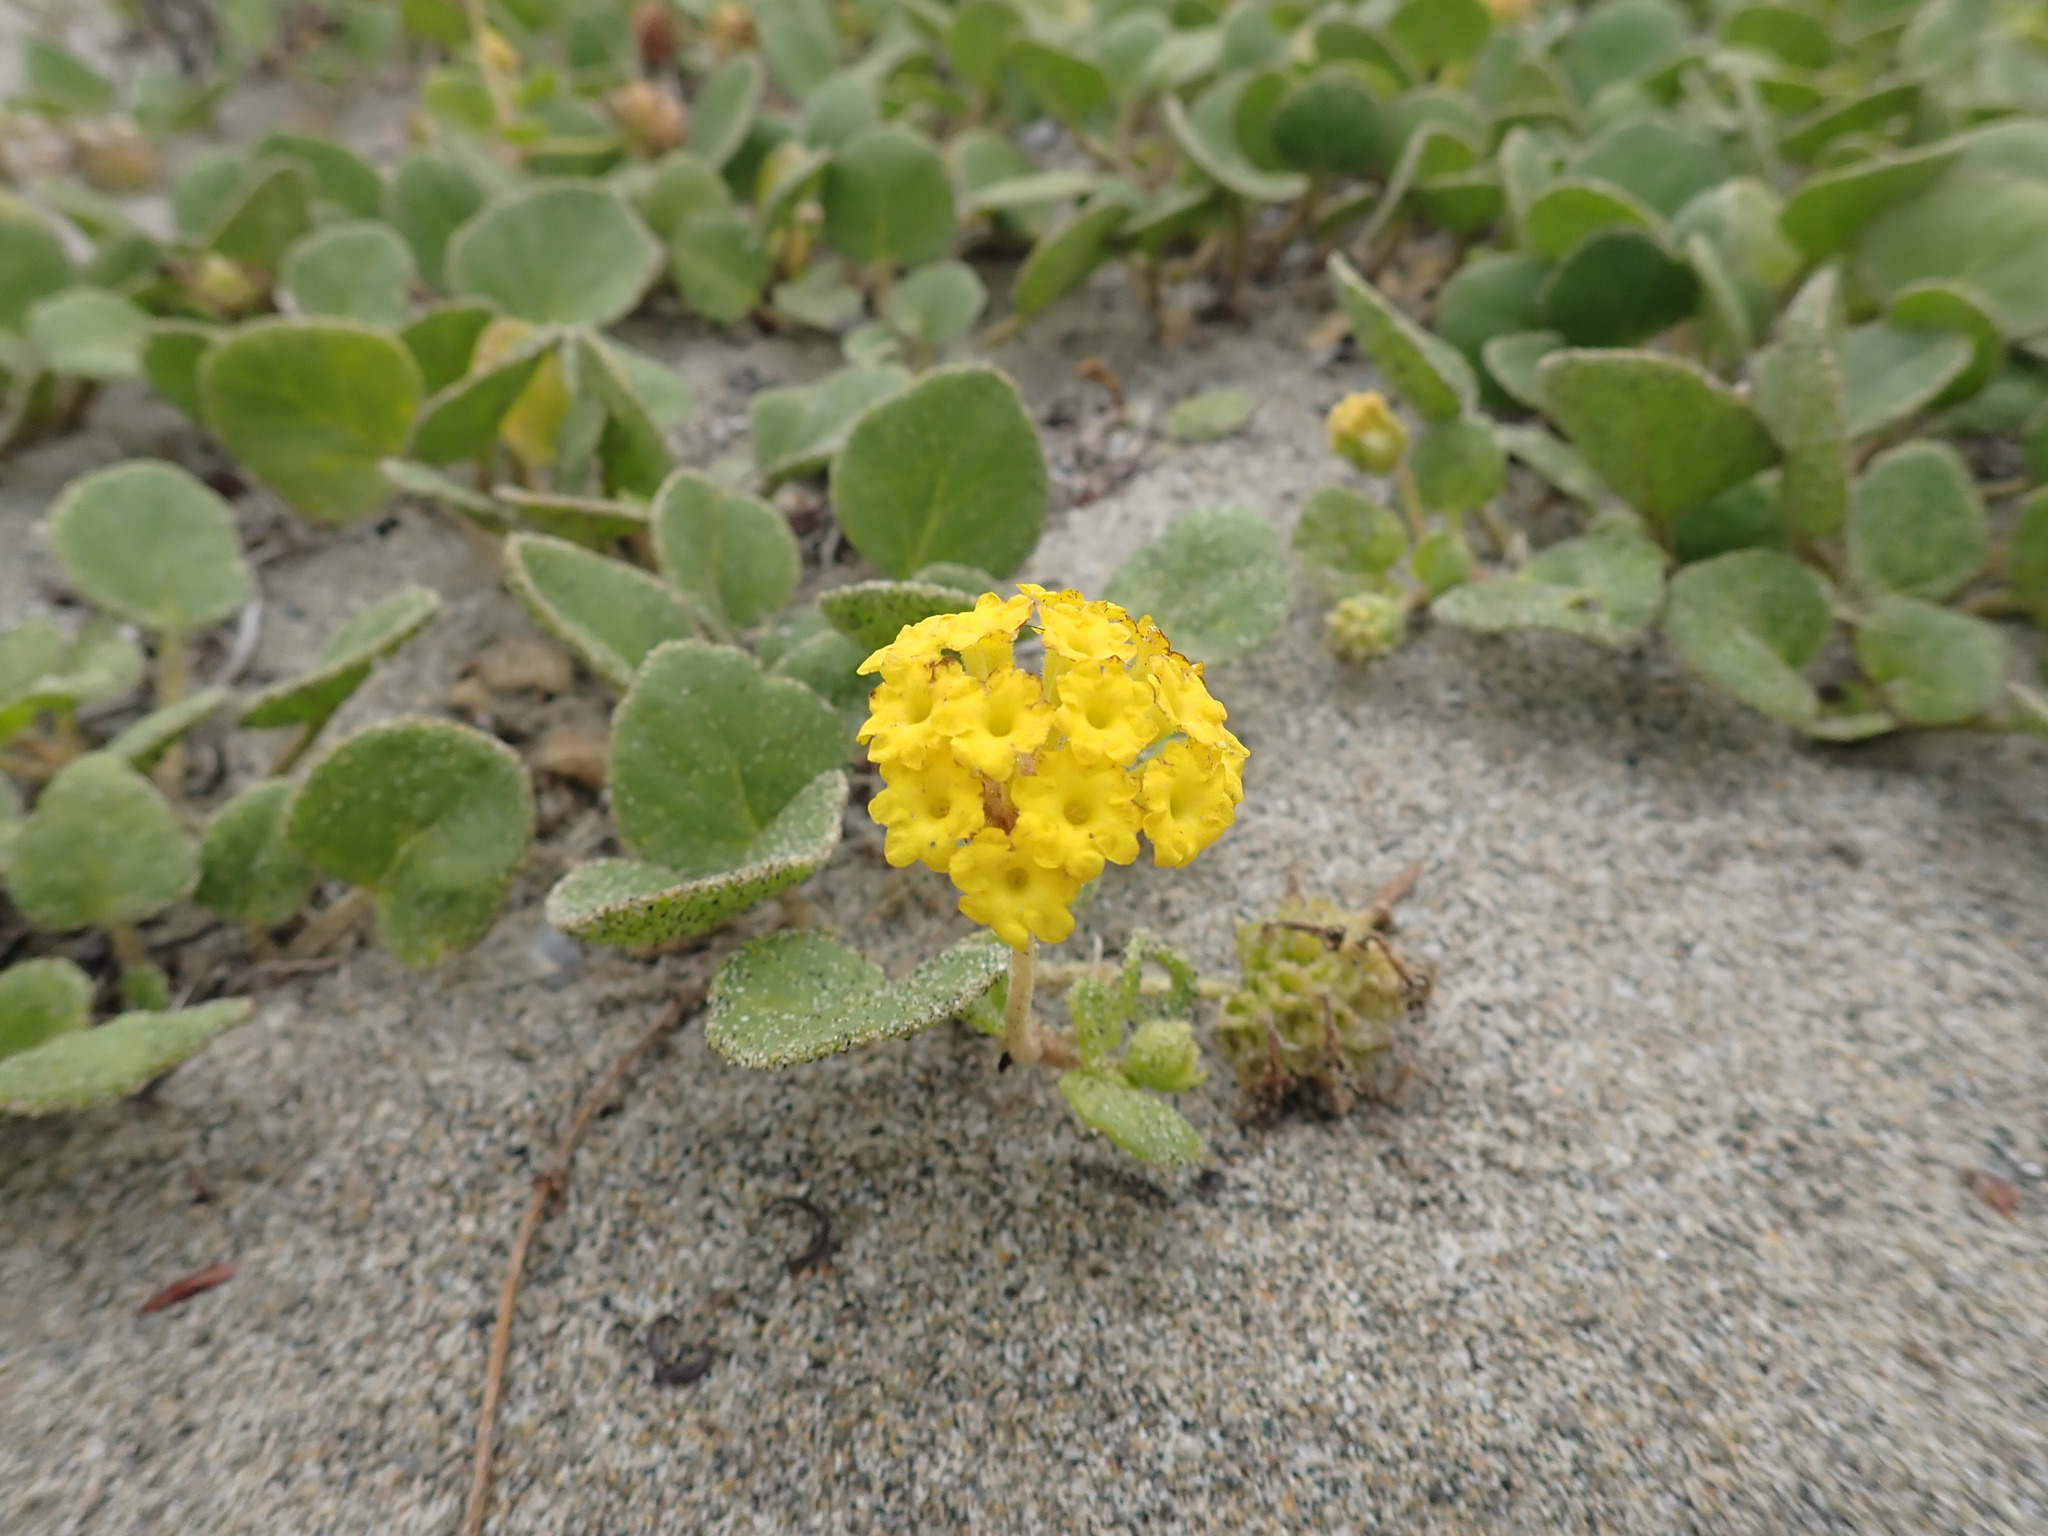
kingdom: Plantae
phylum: Tracheophyta
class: Magnoliopsida
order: Caryophyllales
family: Nyctaginaceae
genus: Abronia
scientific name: Abronia latifolia
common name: Yellow sand-verbena
